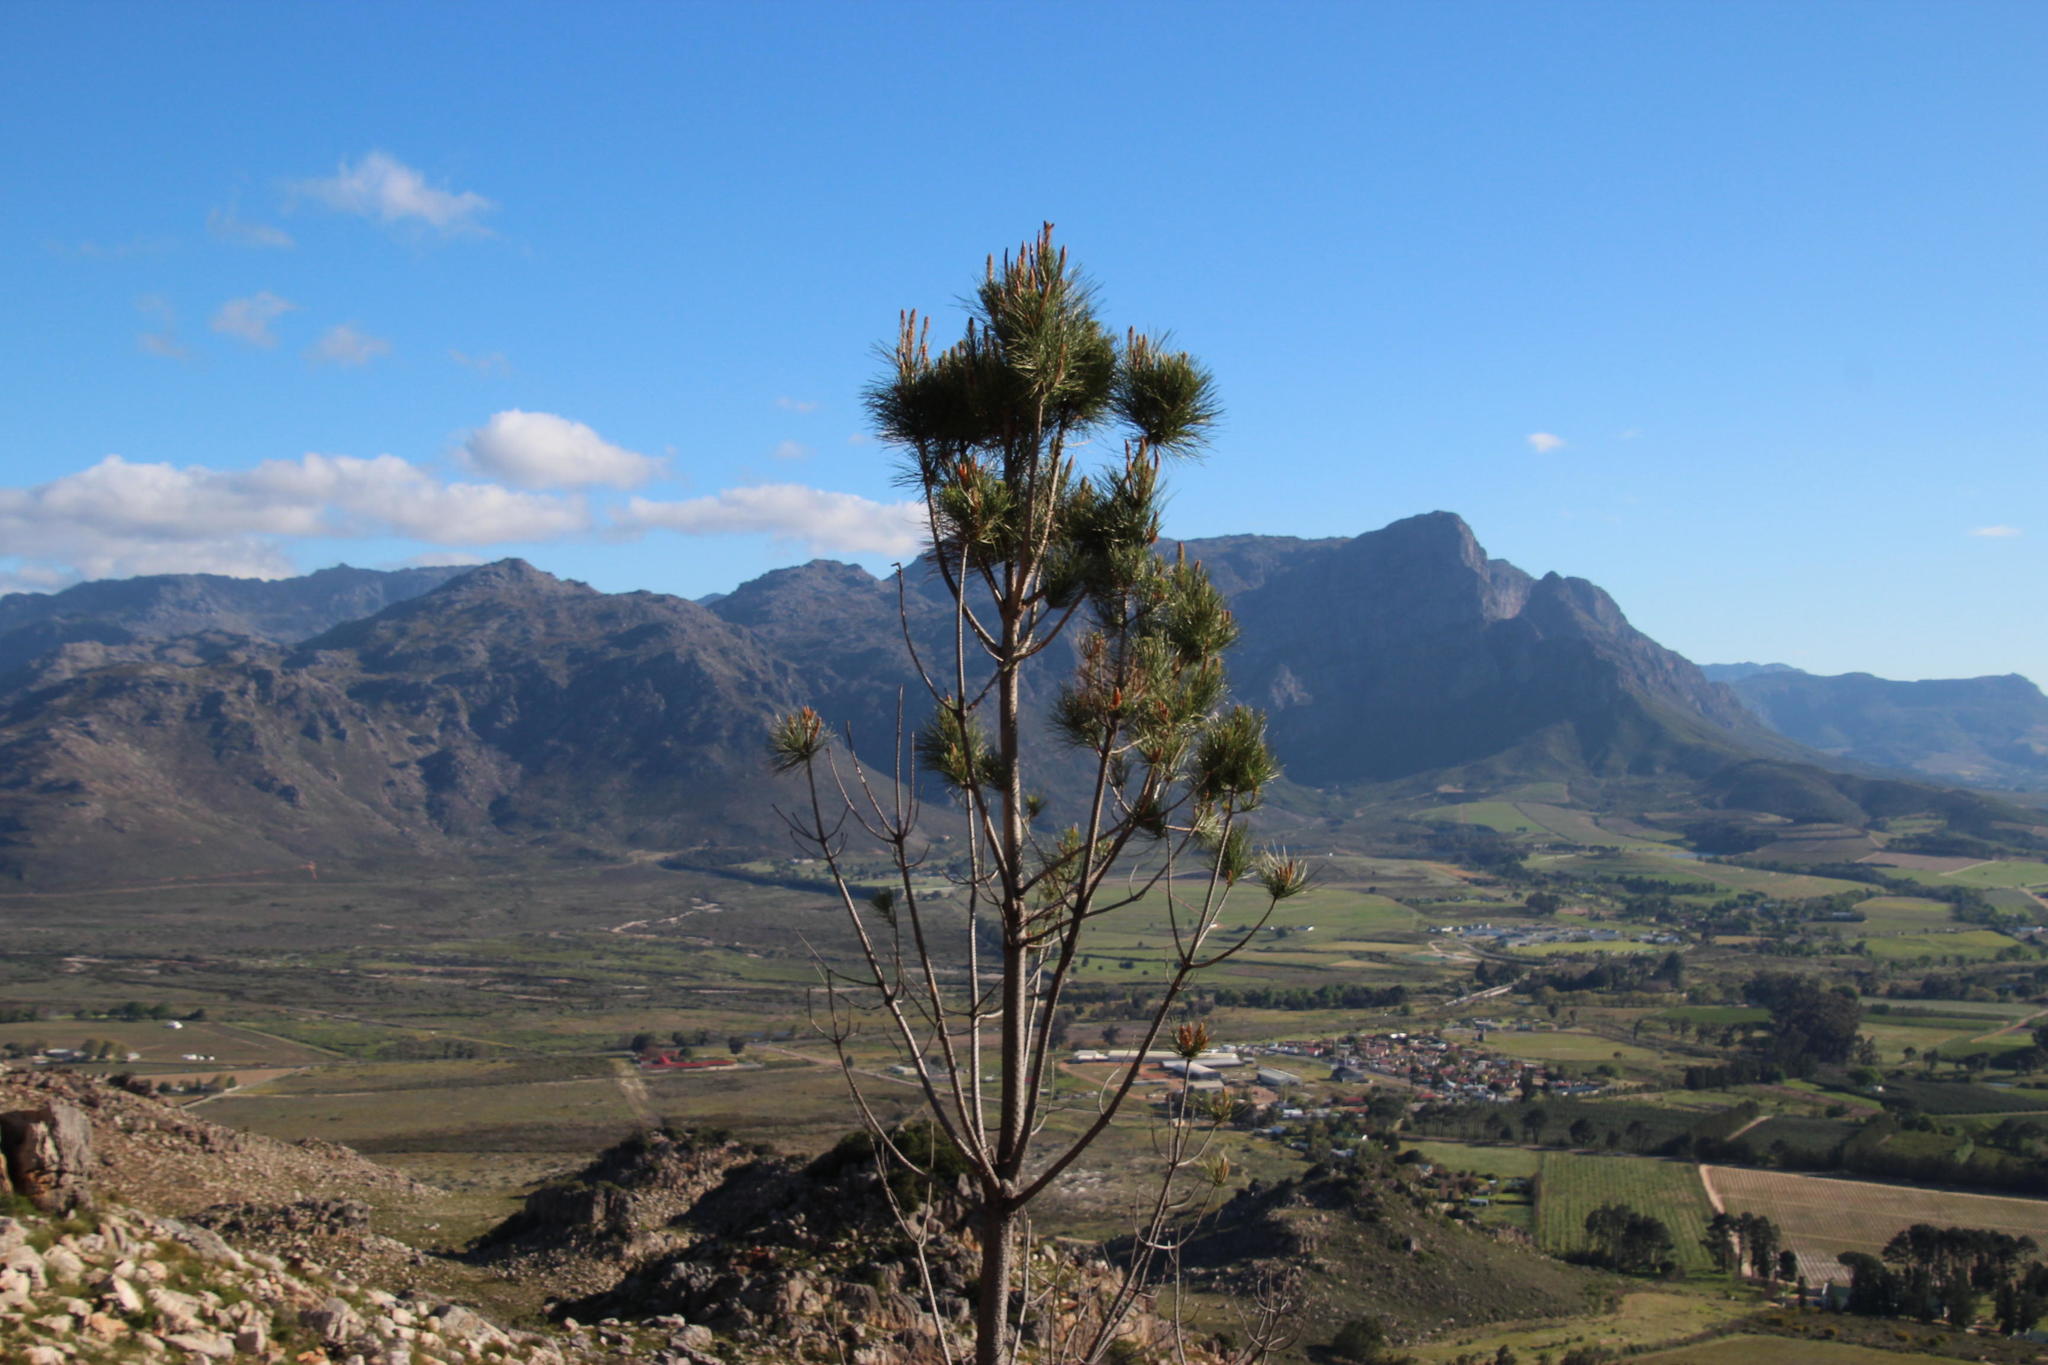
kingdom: Plantae
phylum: Tracheophyta
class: Pinopsida
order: Pinales
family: Pinaceae
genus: Pinus
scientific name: Pinus pinaster
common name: Maritime pine
